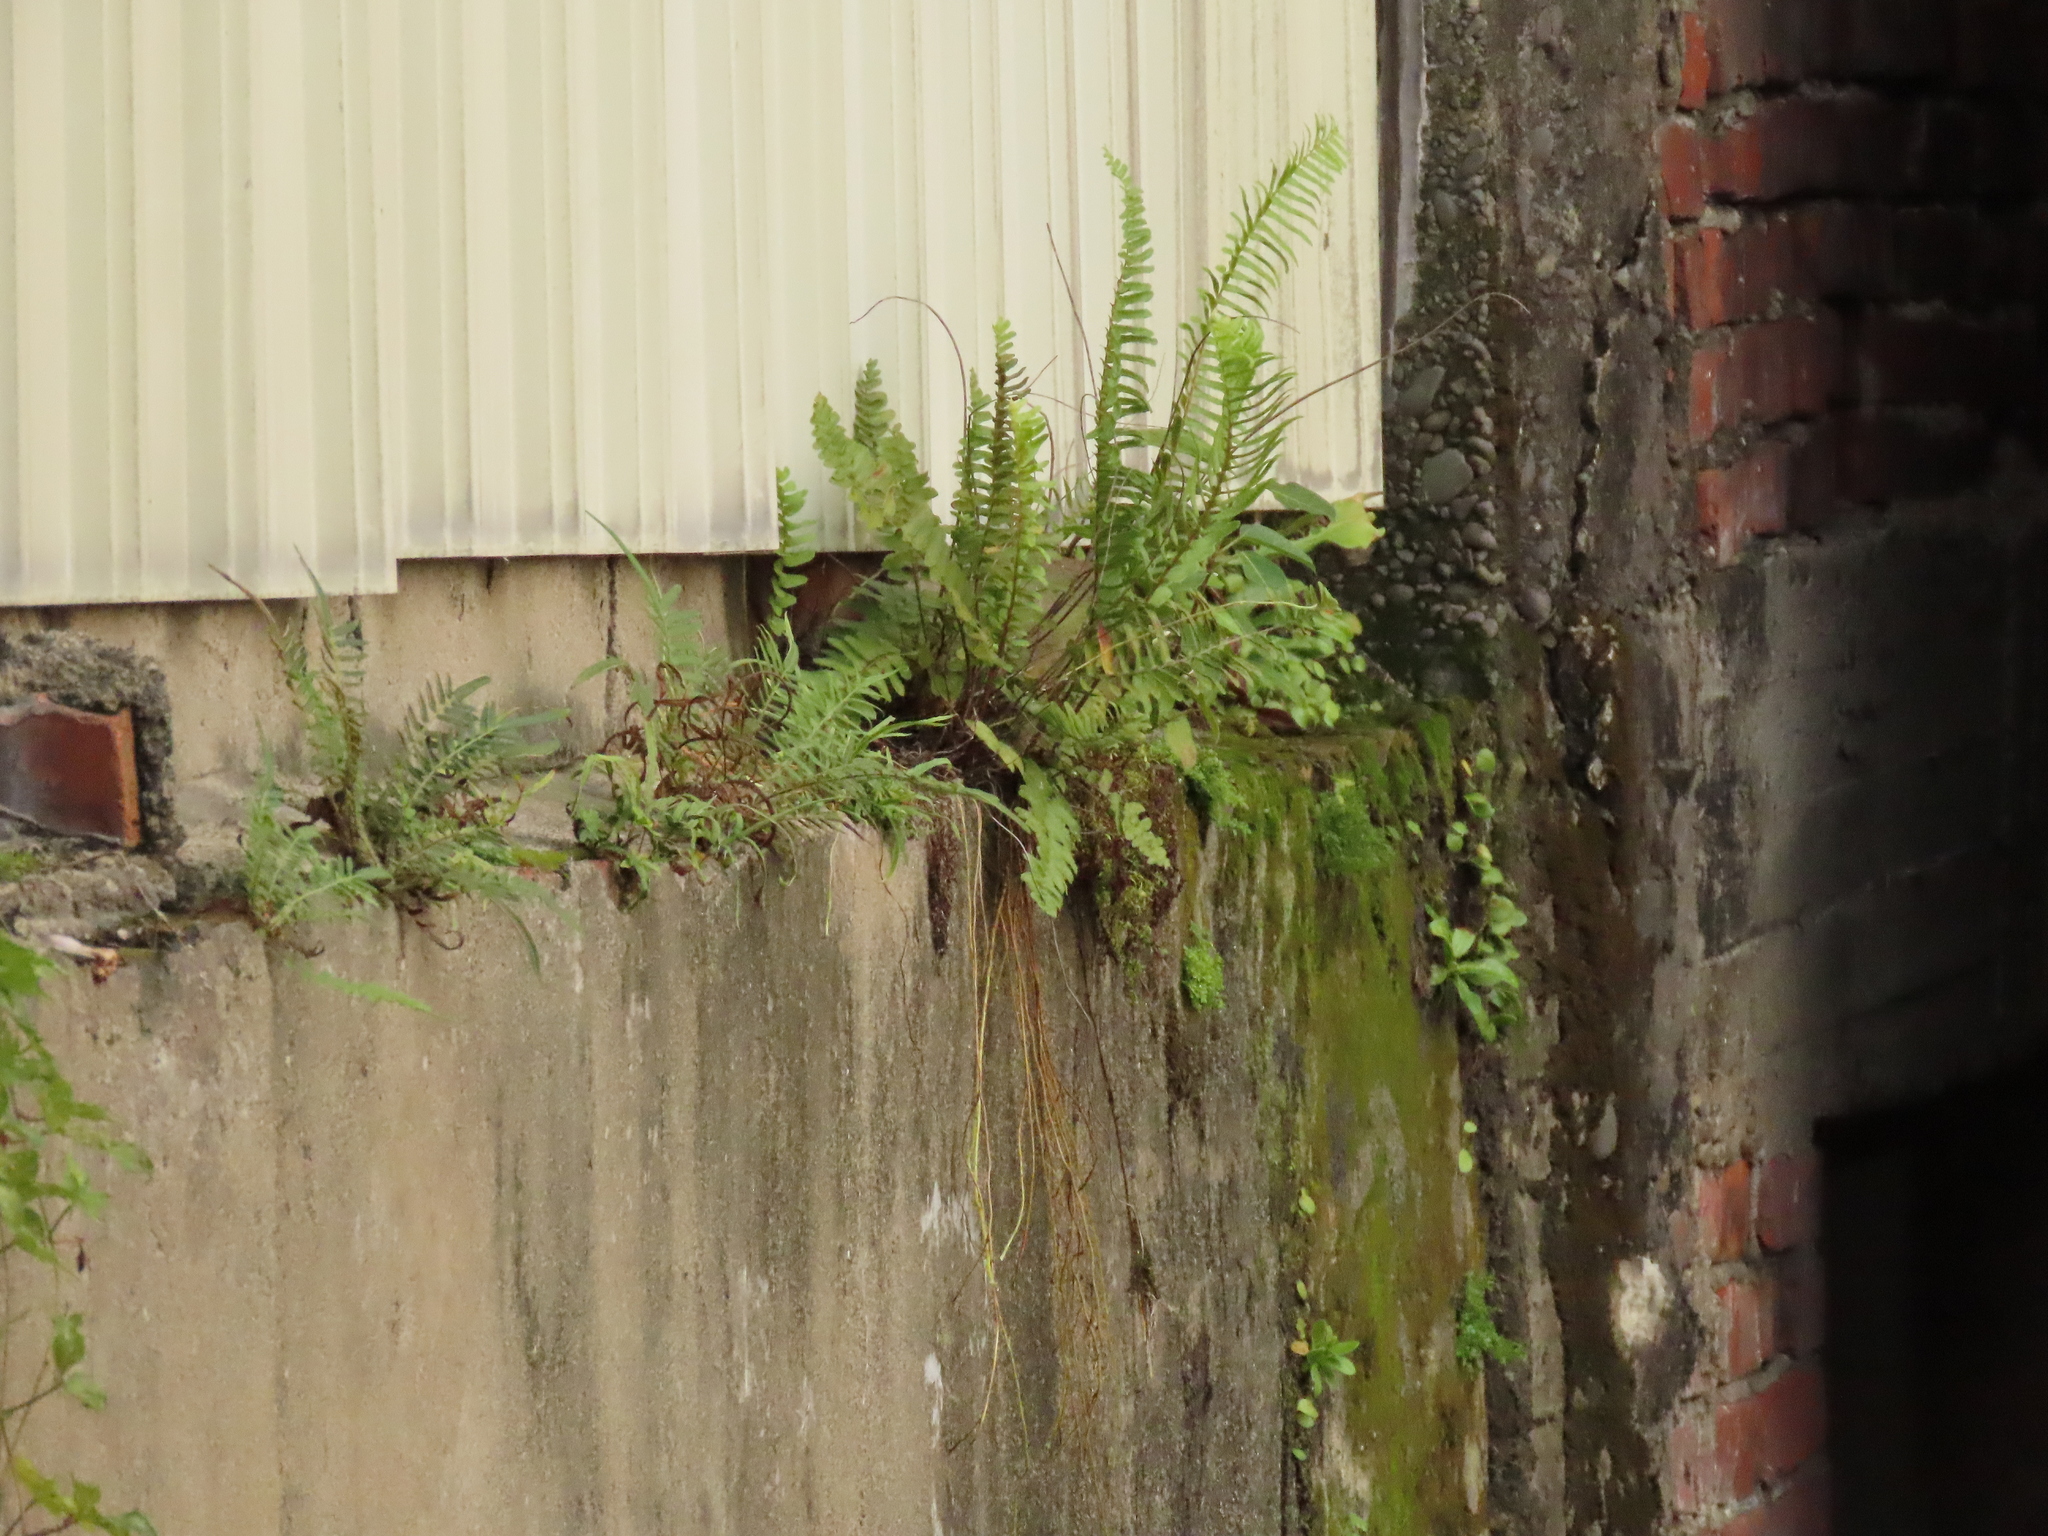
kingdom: Plantae
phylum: Tracheophyta
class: Polypodiopsida
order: Polypodiales
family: Nephrolepidaceae
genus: Nephrolepis
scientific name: Nephrolepis brownii
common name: Asian swordfern
